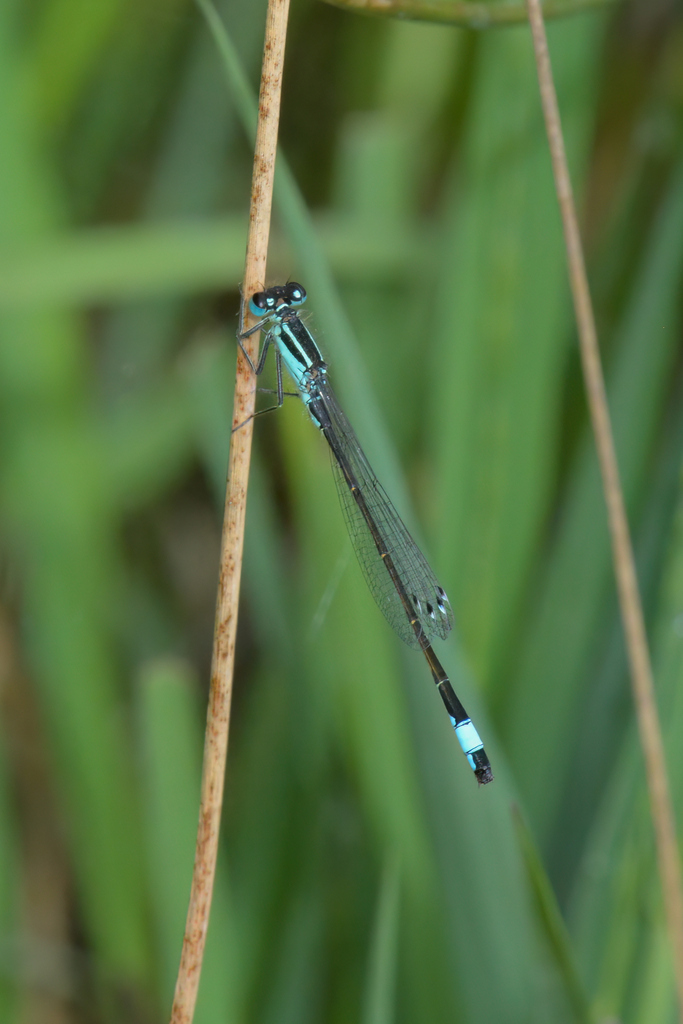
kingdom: Animalia
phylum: Arthropoda
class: Insecta
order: Odonata
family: Coenagrionidae
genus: Ischnura
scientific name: Ischnura elegans
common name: Blue-tailed damselfly
